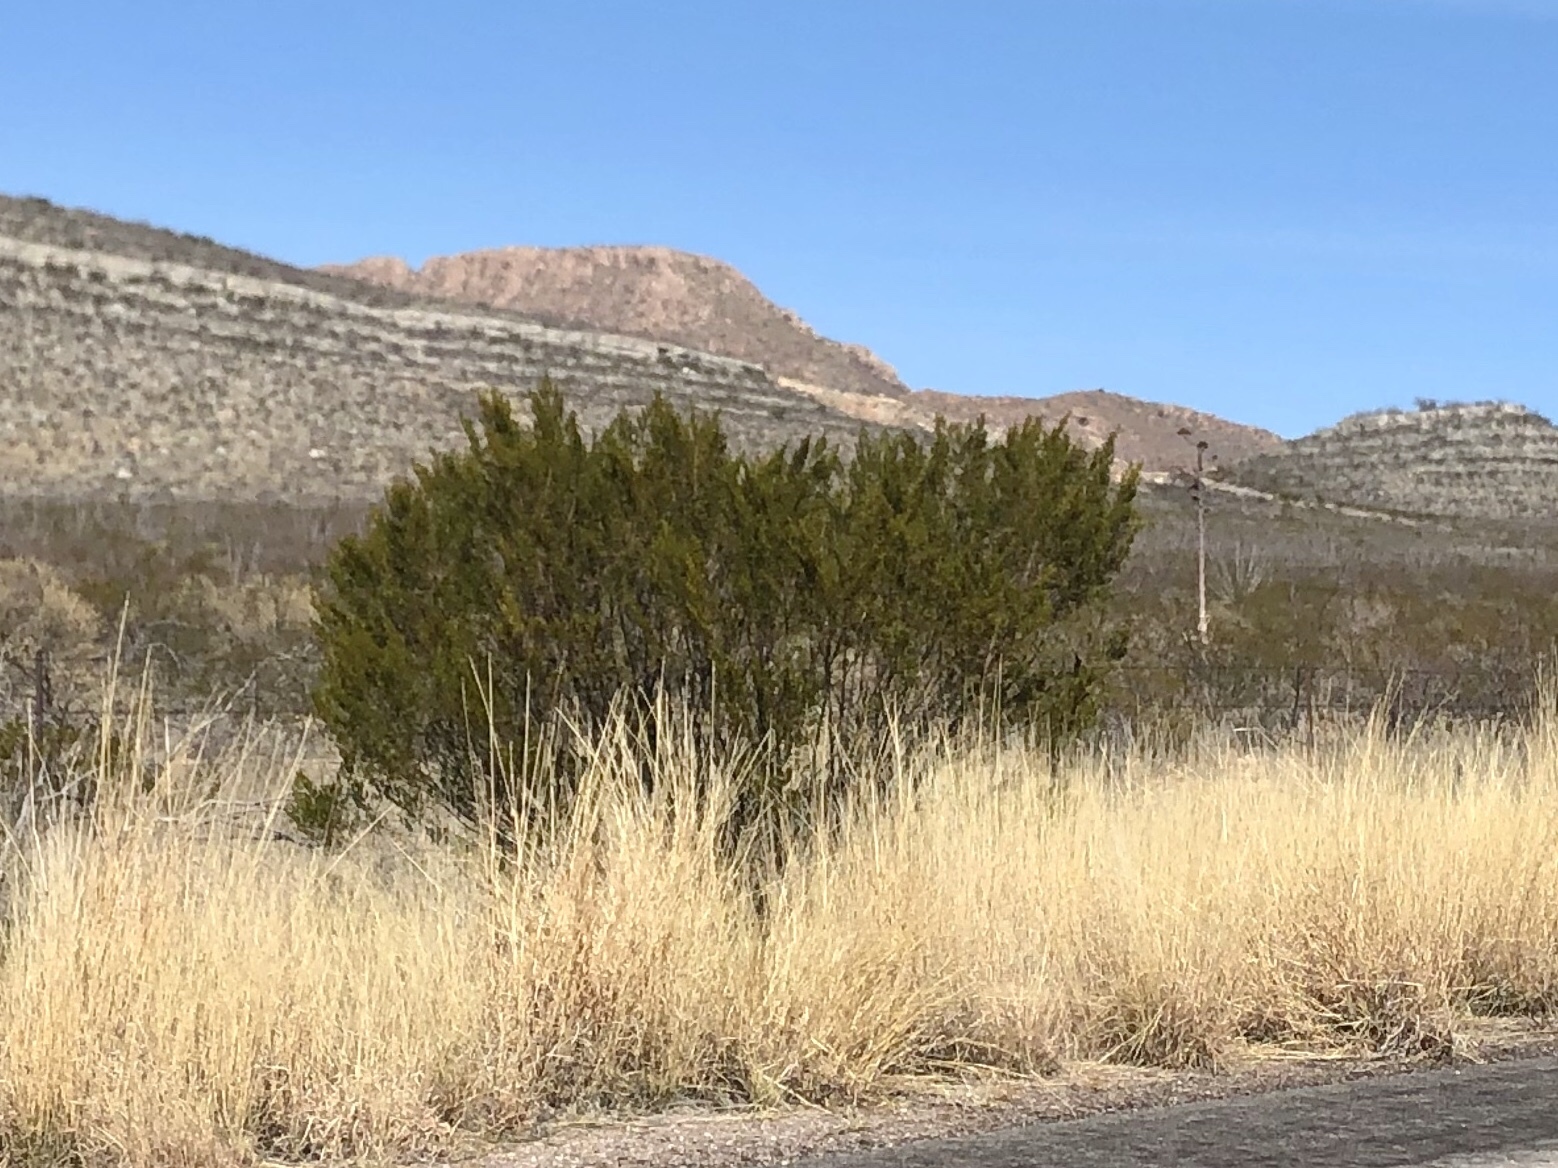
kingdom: Plantae
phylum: Tracheophyta
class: Magnoliopsida
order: Zygophyllales
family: Zygophyllaceae
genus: Larrea
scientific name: Larrea tridentata
